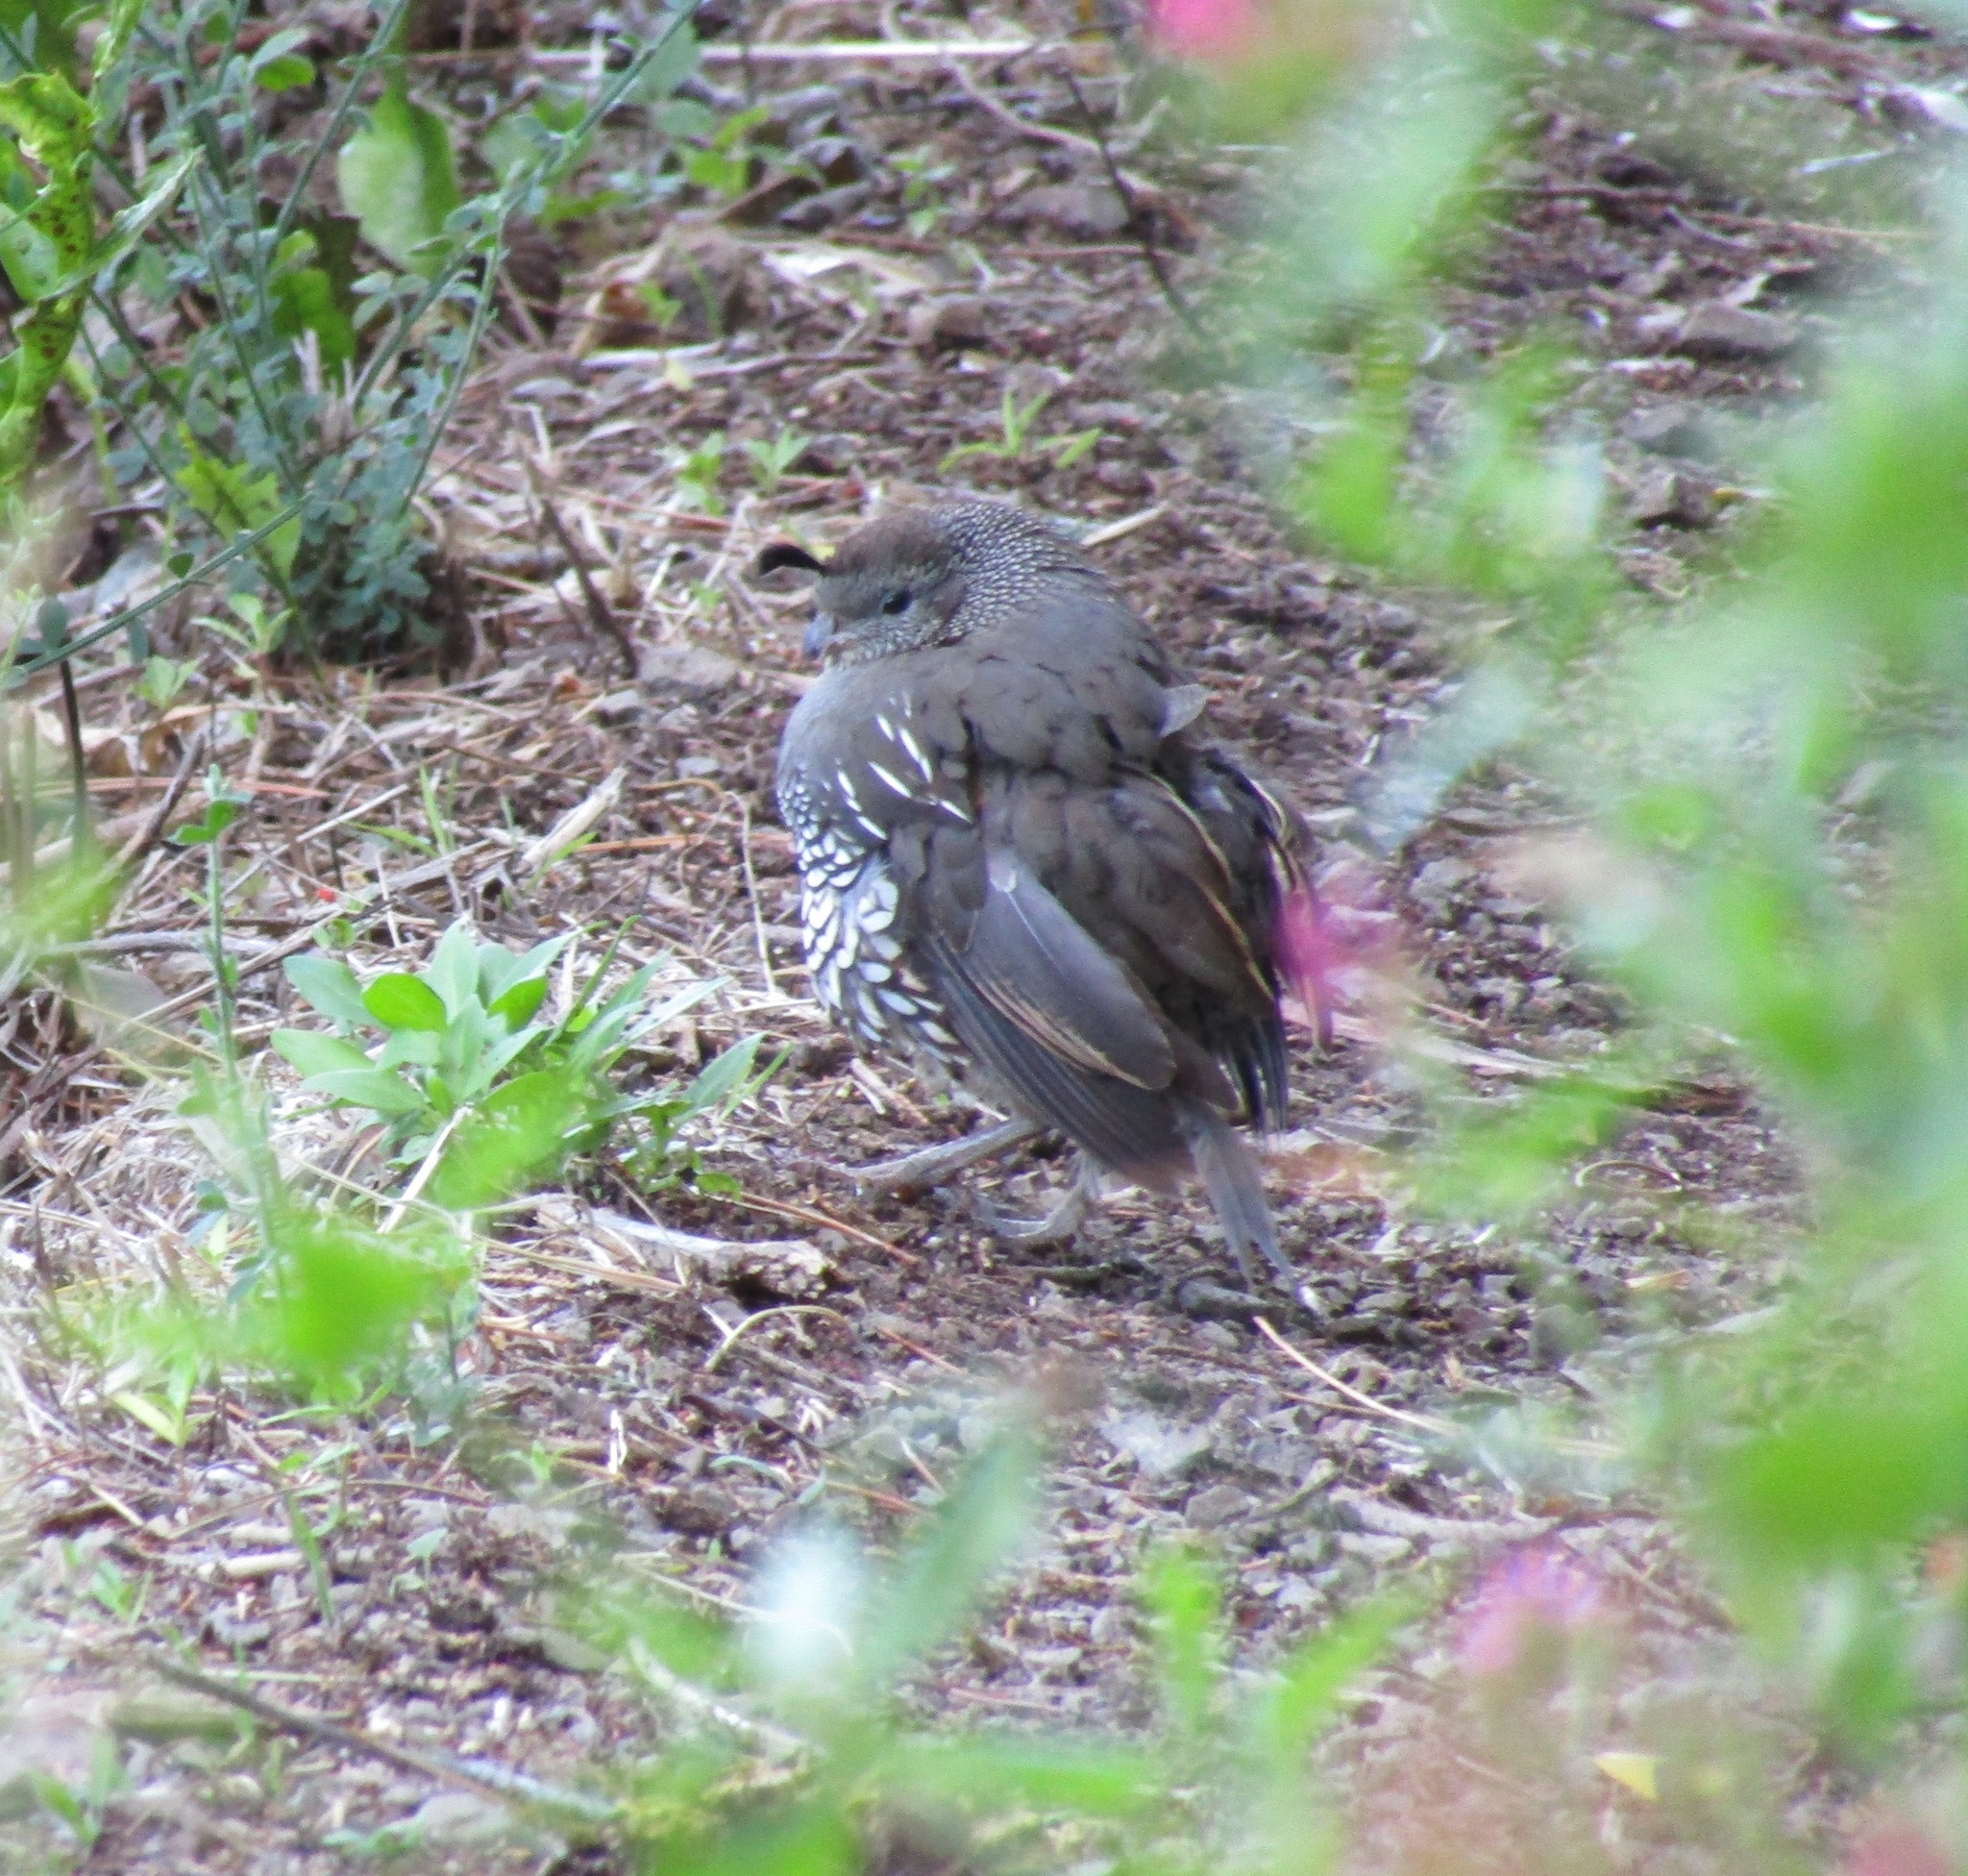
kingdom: Animalia
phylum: Chordata
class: Aves
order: Galliformes
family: Odontophoridae
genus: Callipepla
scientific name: Callipepla californica
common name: California quail
